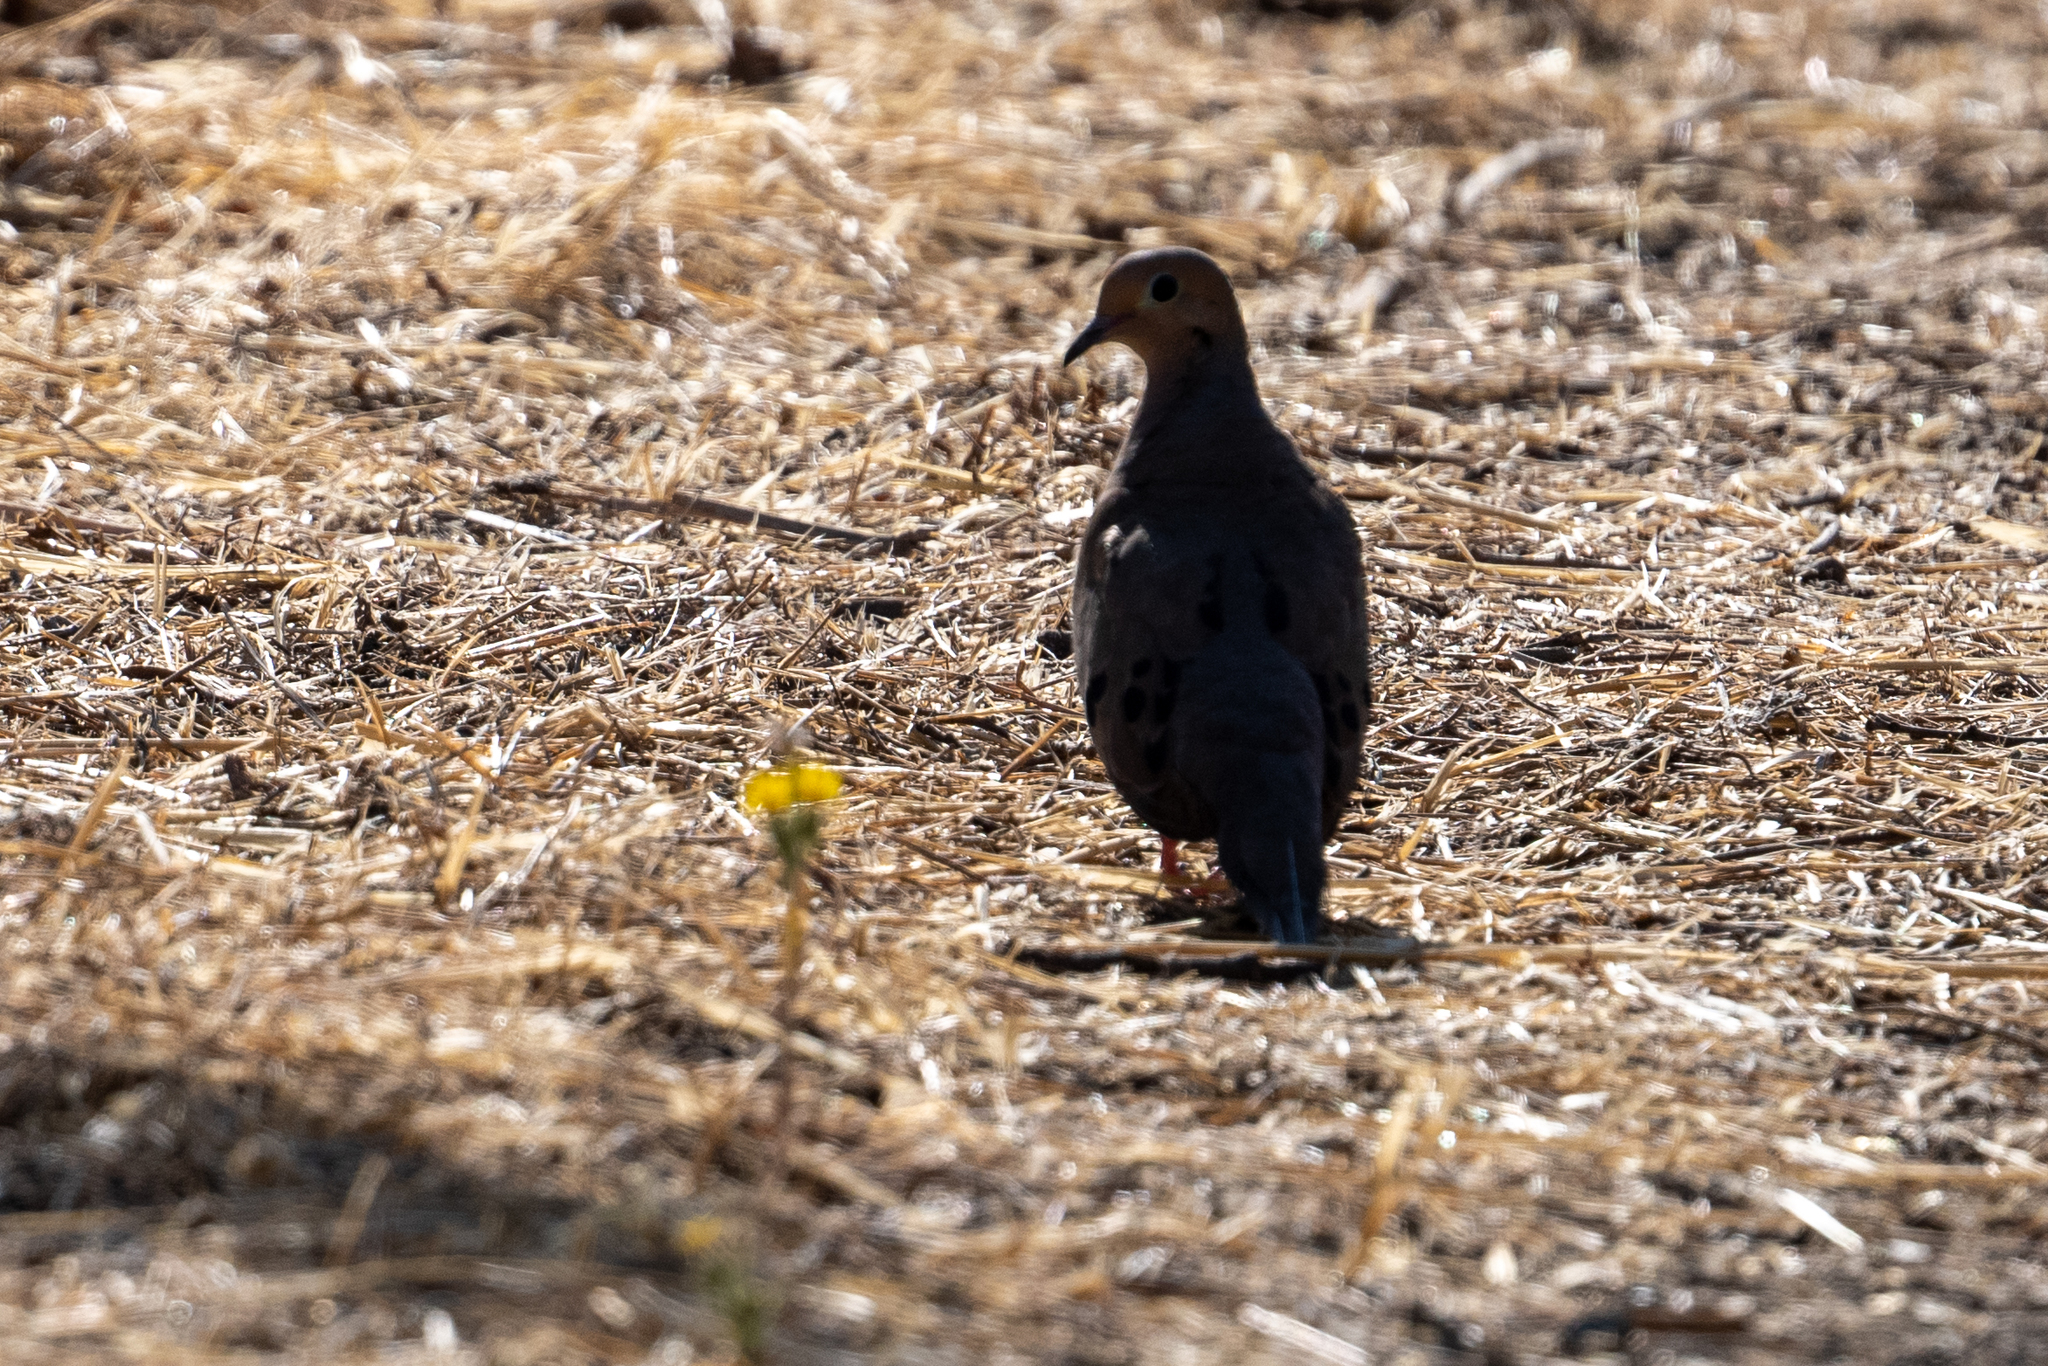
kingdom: Animalia
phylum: Chordata
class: Aves
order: Columbiformes
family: Columbidae
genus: Zenaida
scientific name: Zenaida macroura
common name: Mourning dove
